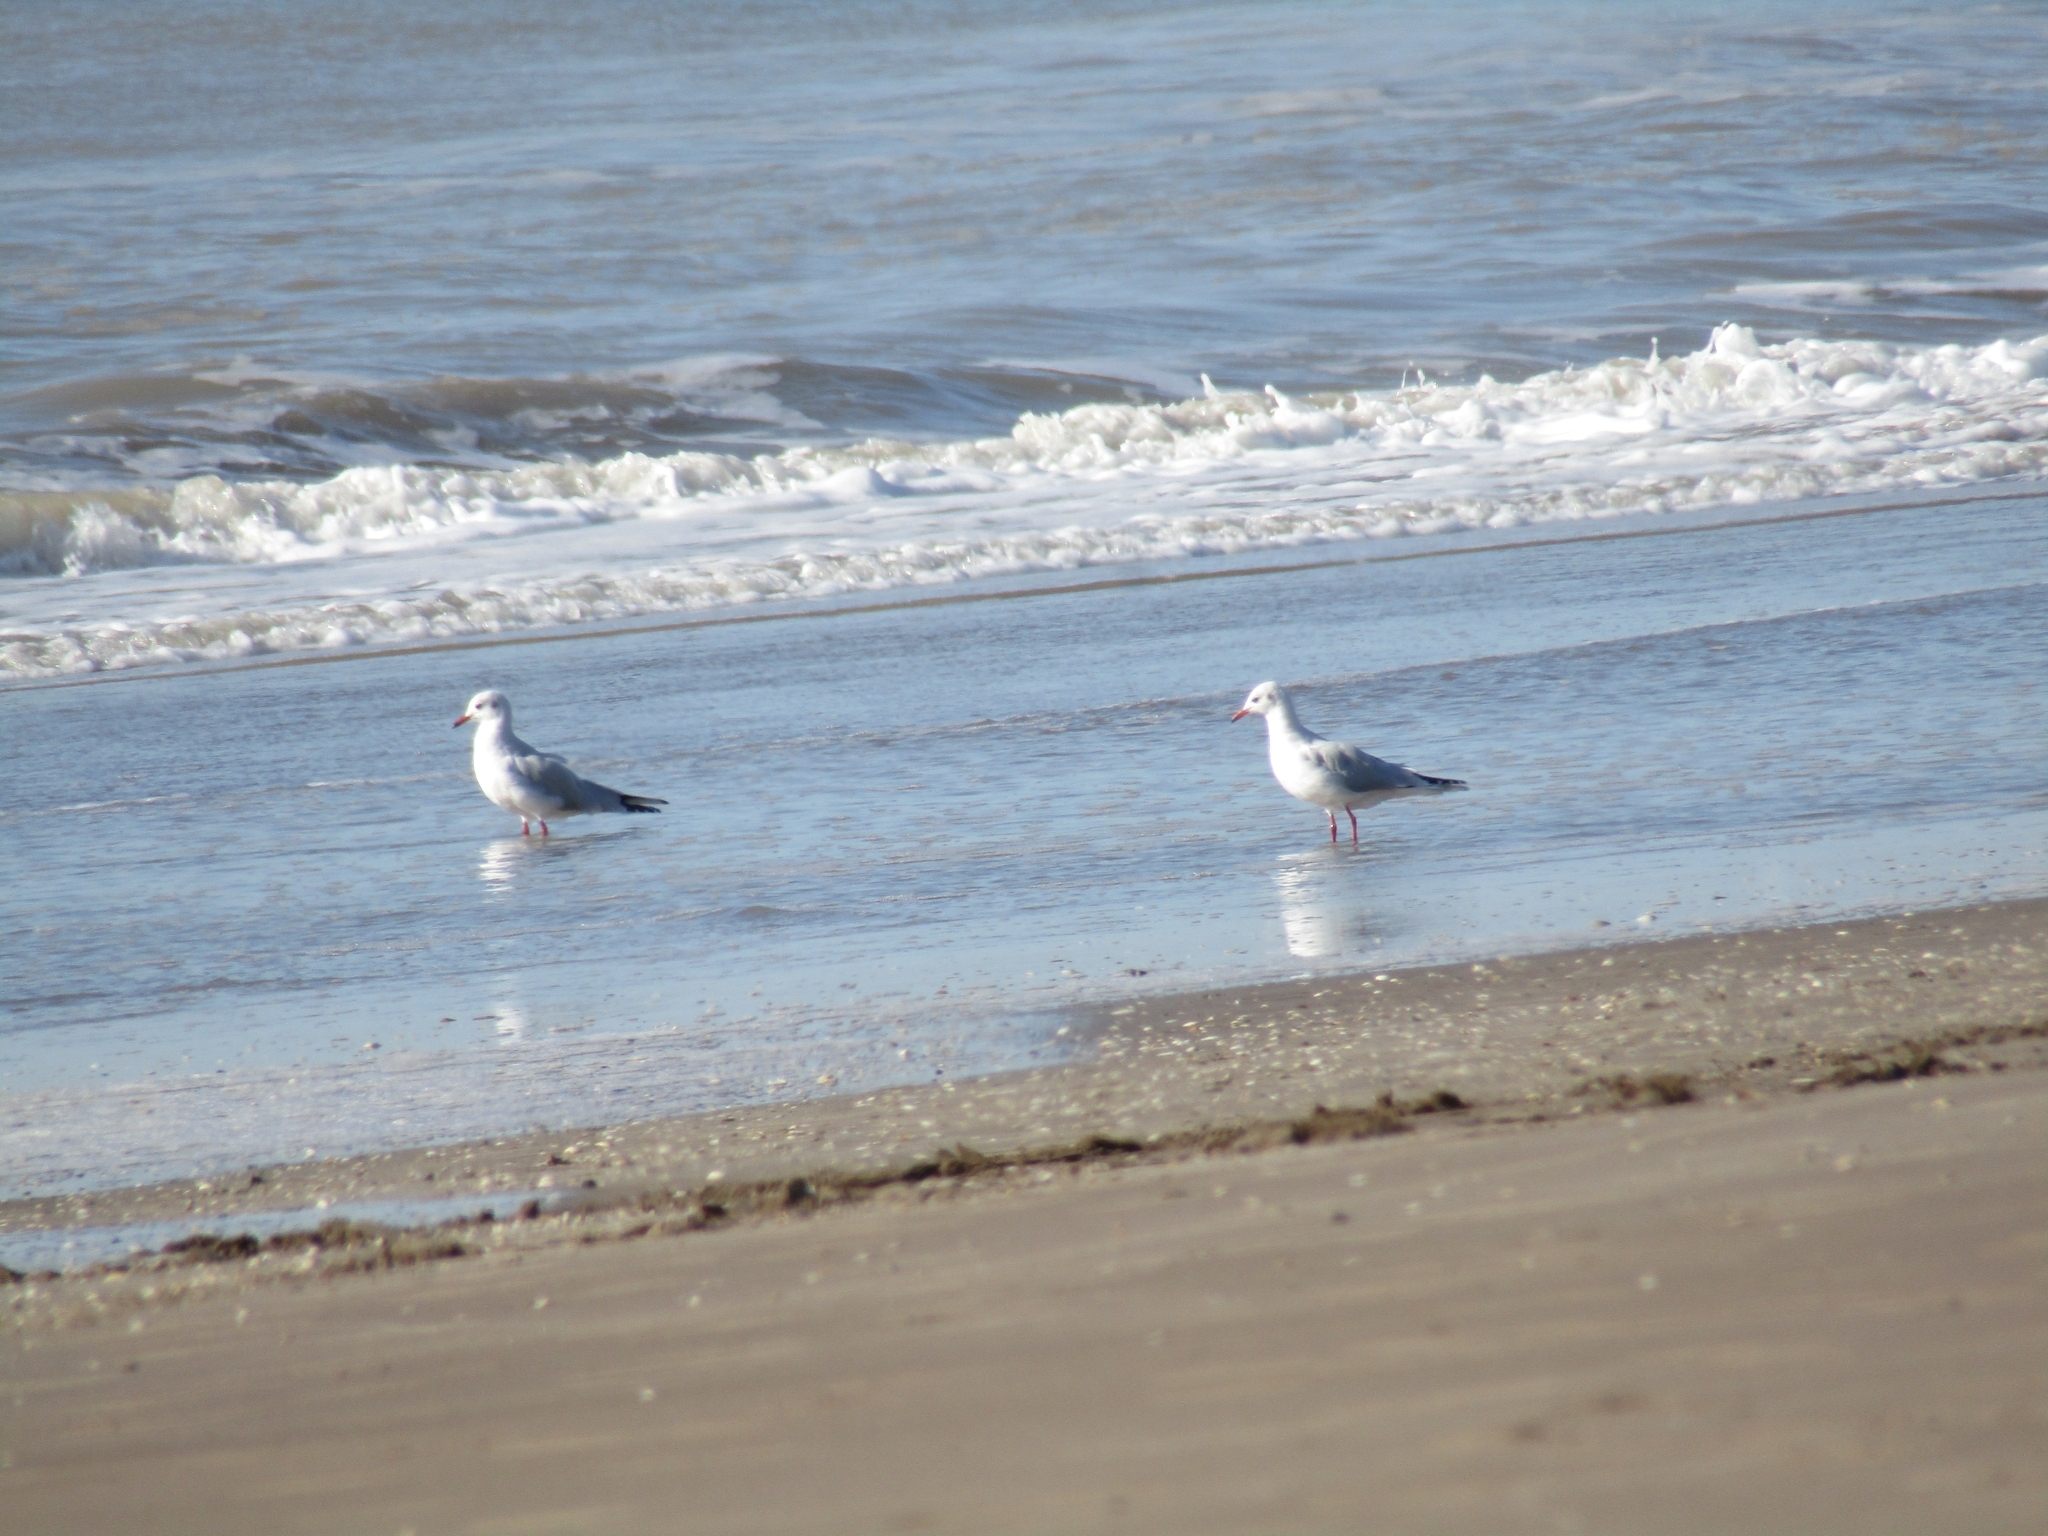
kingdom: Animalia
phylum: Chordata
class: Aves
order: Charadriiformes
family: Laridae
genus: Chroicocephalus
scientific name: Chroicocephalus maculipennis
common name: Brown-hooded gull
